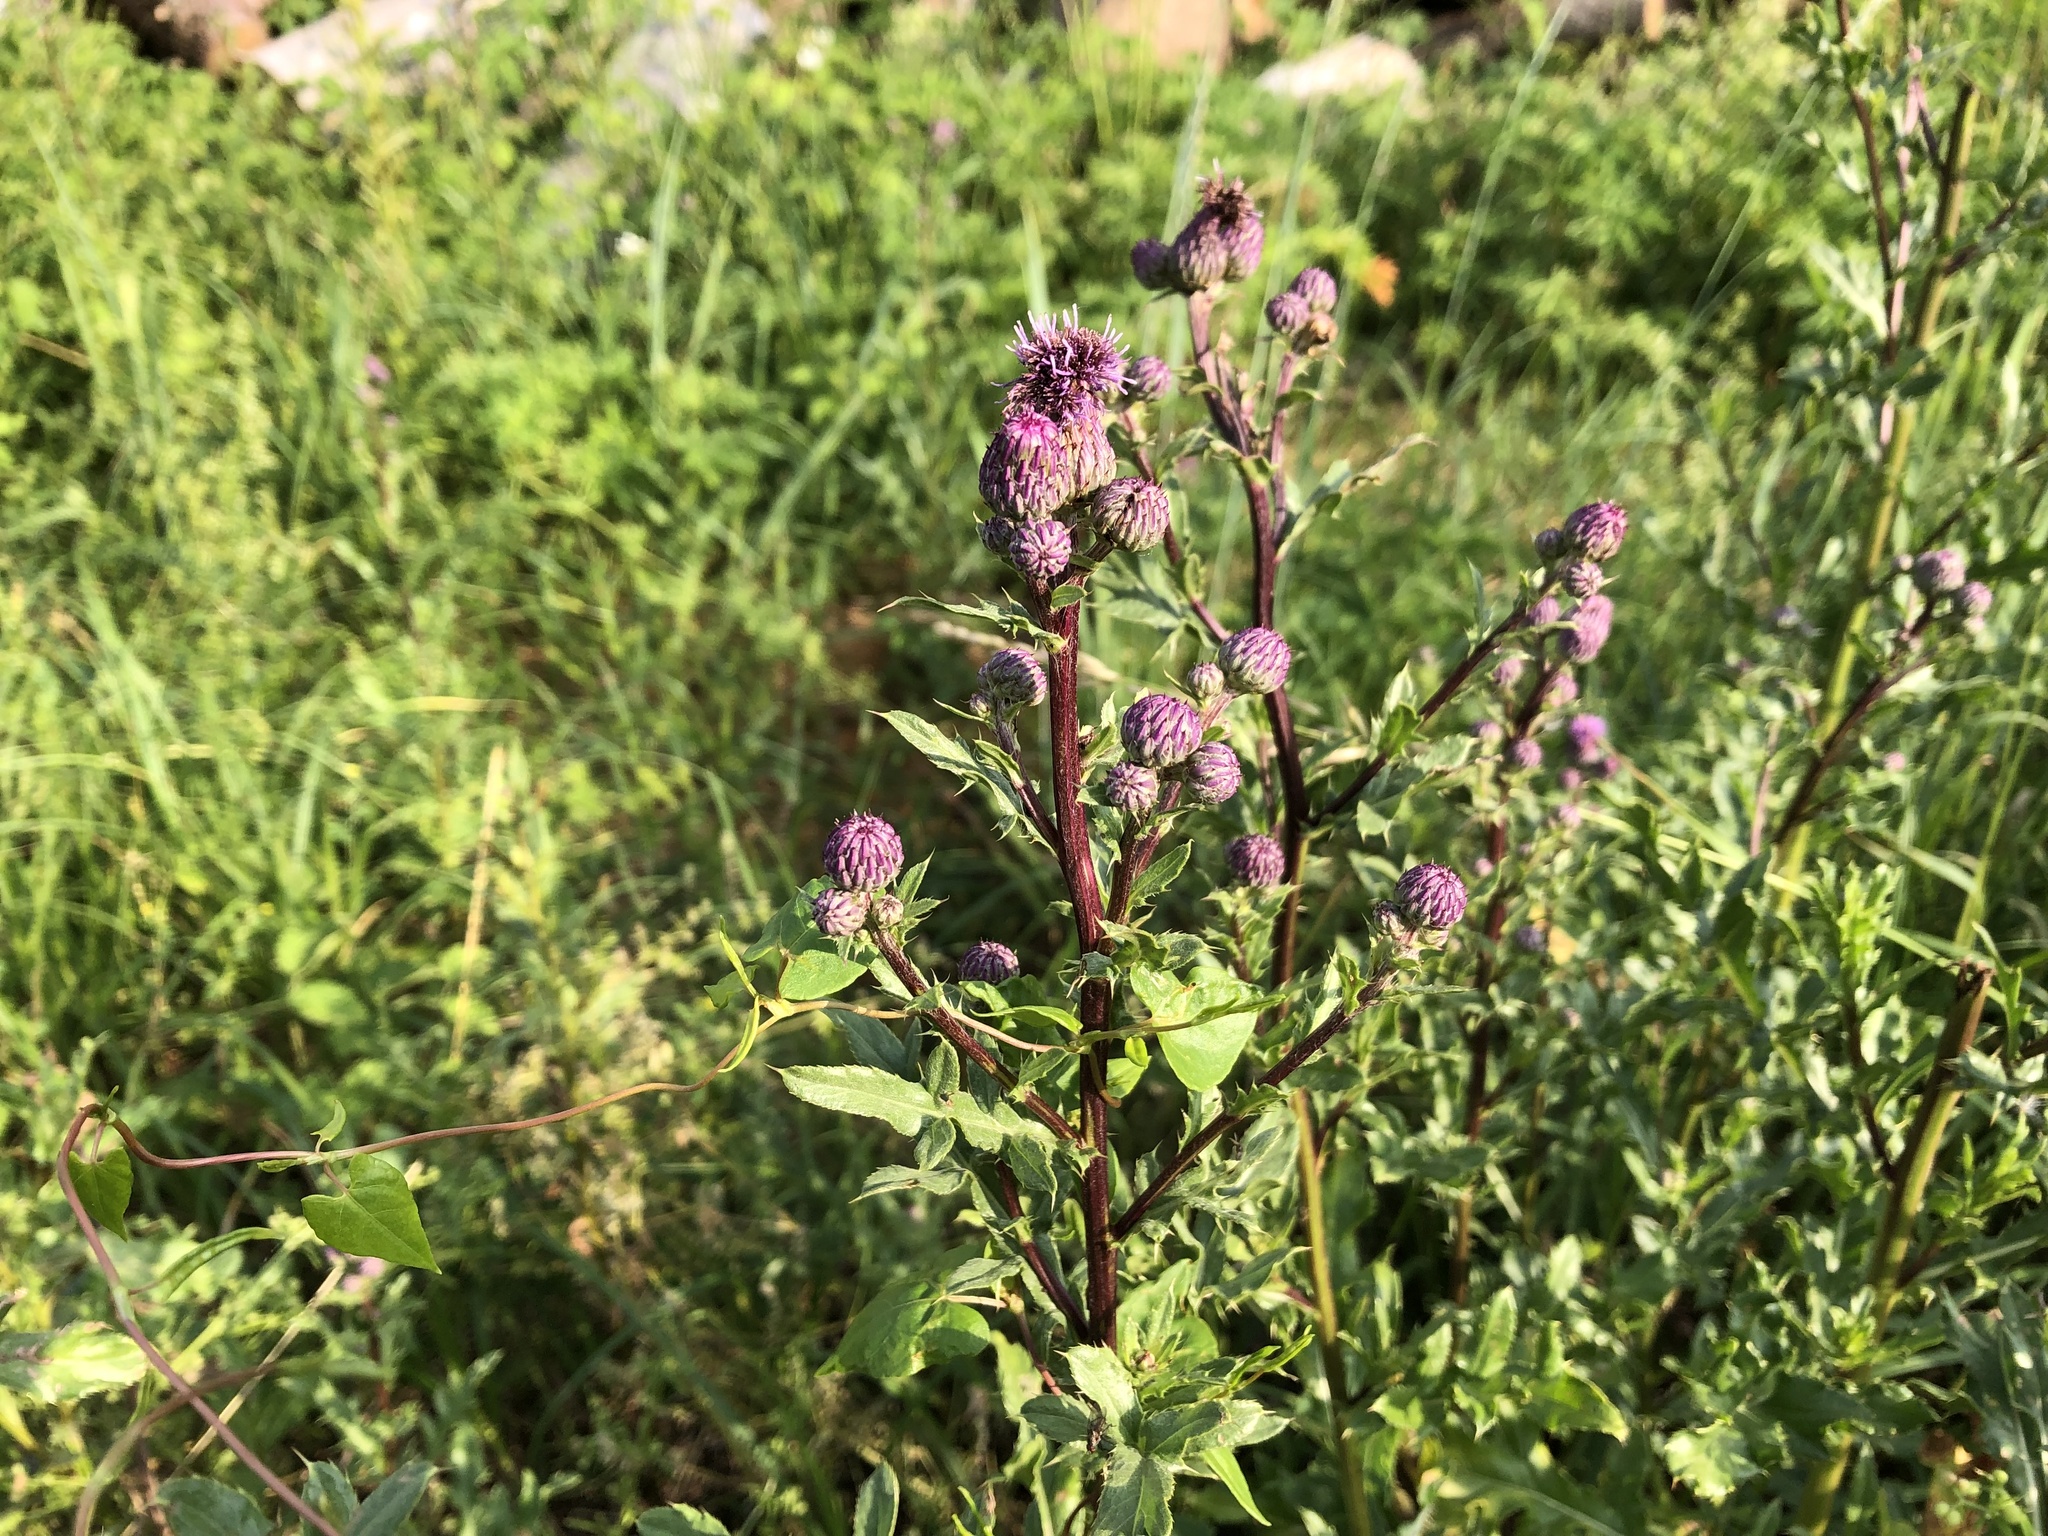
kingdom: Plantae
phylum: Tracheophyta
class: Magnoliopsida
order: Asterales
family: Asteraceae
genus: Cirsium
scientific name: Cirsium arvense
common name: Creeping thistle
